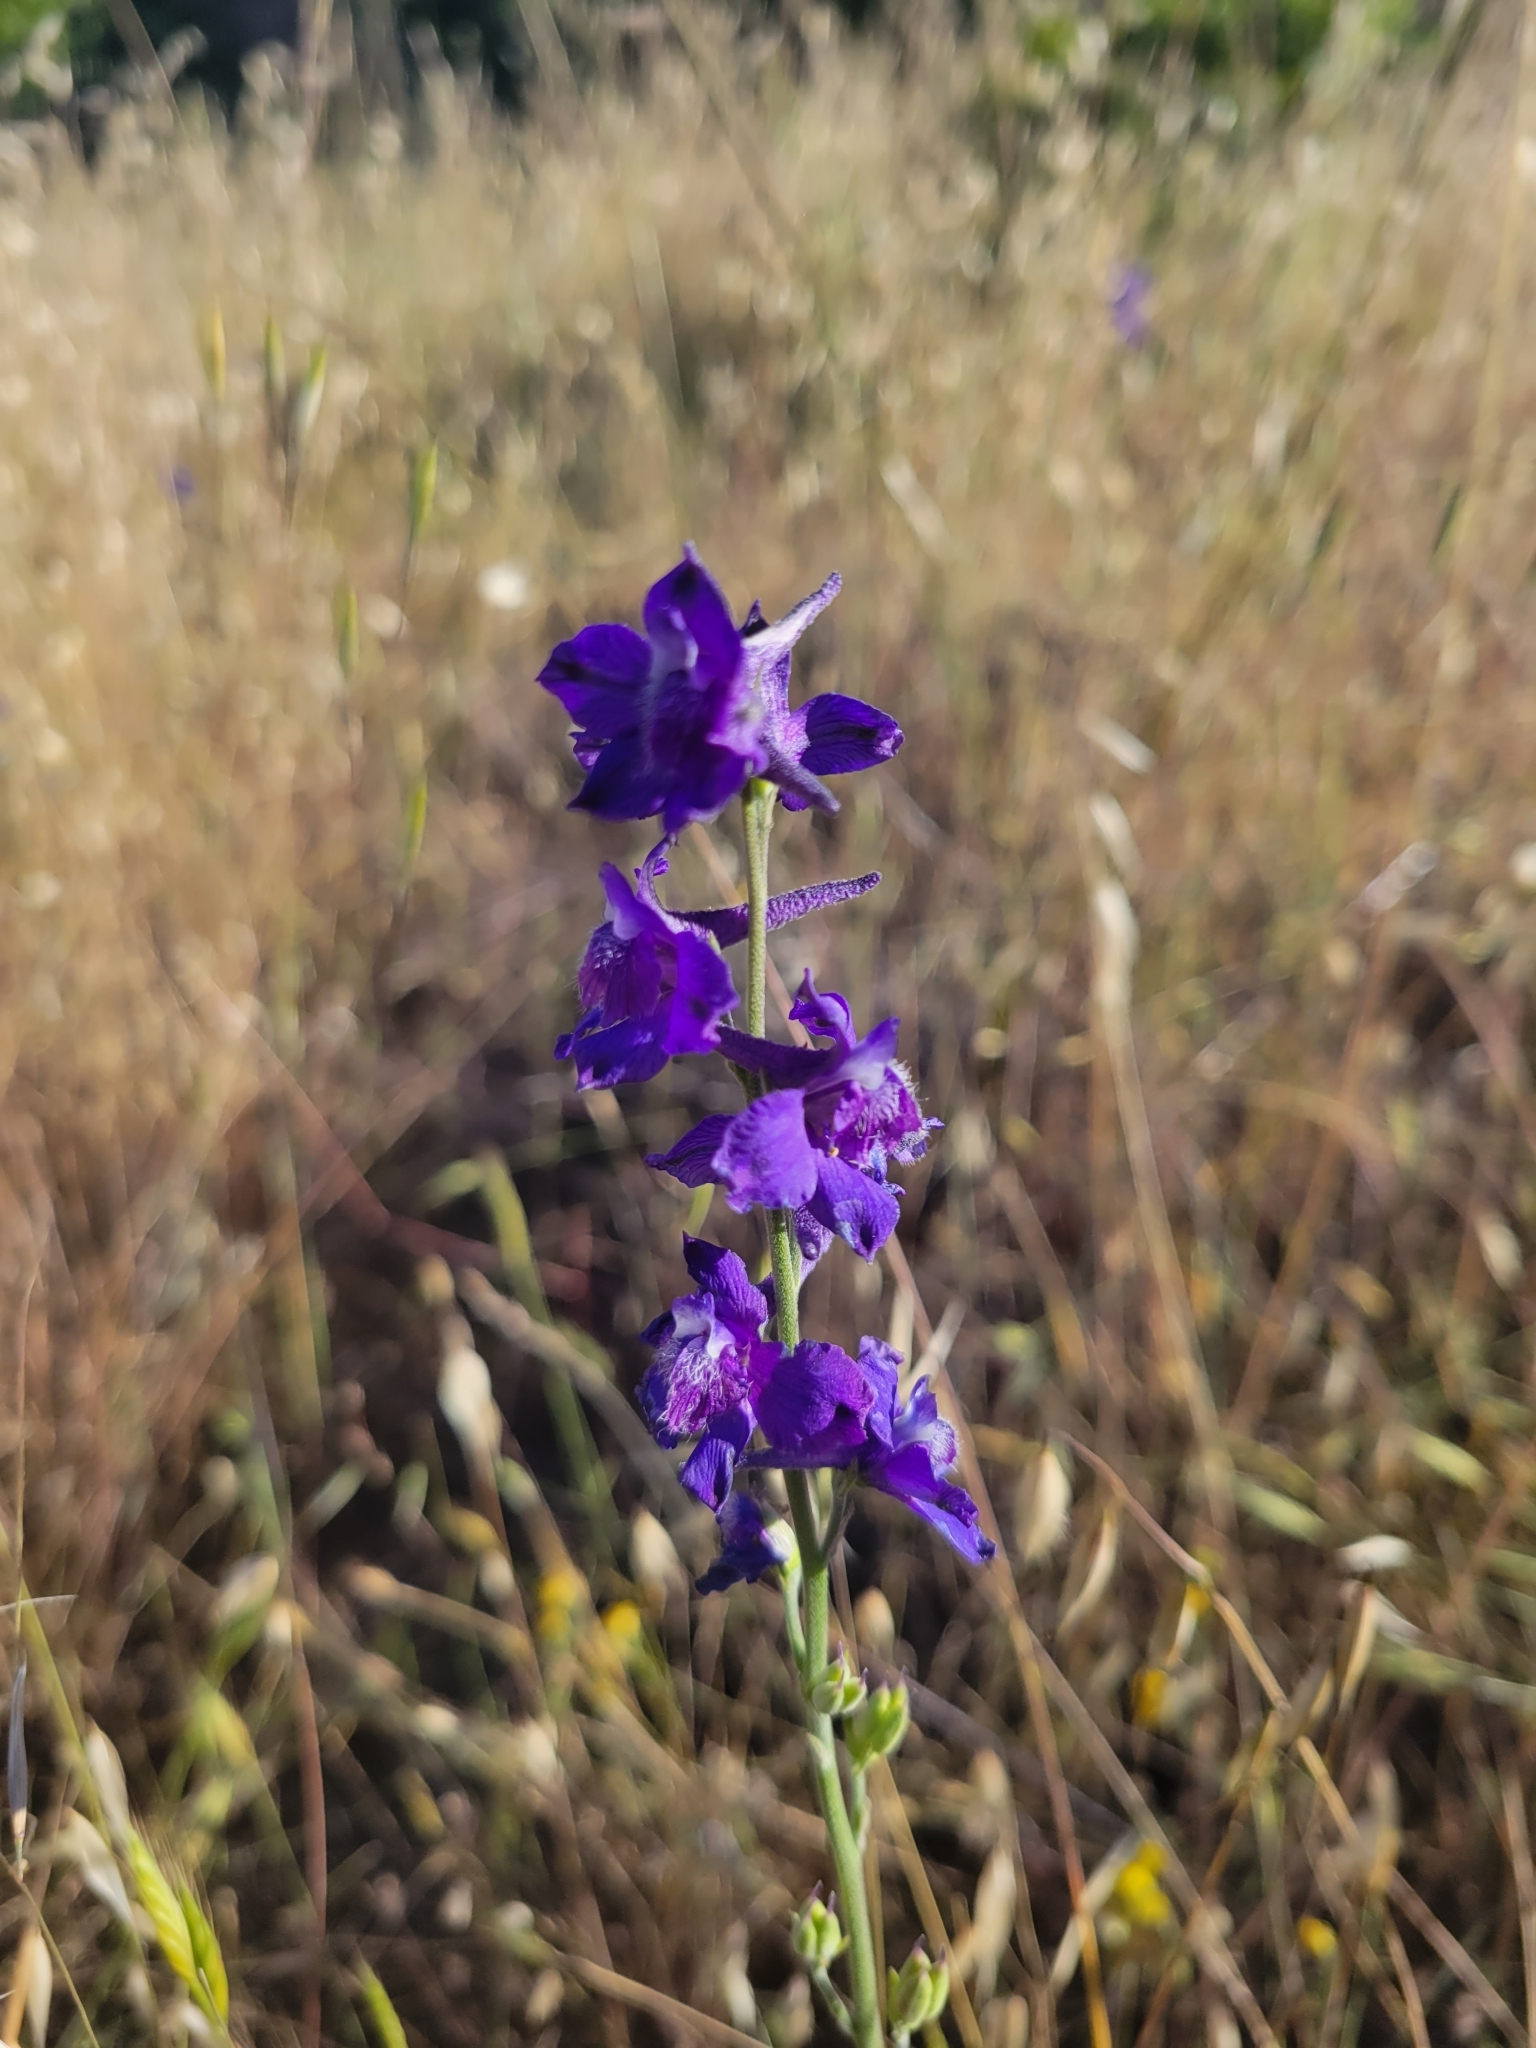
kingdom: Plantae
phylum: Tracheophyta
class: Magnoliopsida
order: Ranunculales
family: Ranunculaceae
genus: Delphinium
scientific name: Delphinium hesperium
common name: Western larkspur
